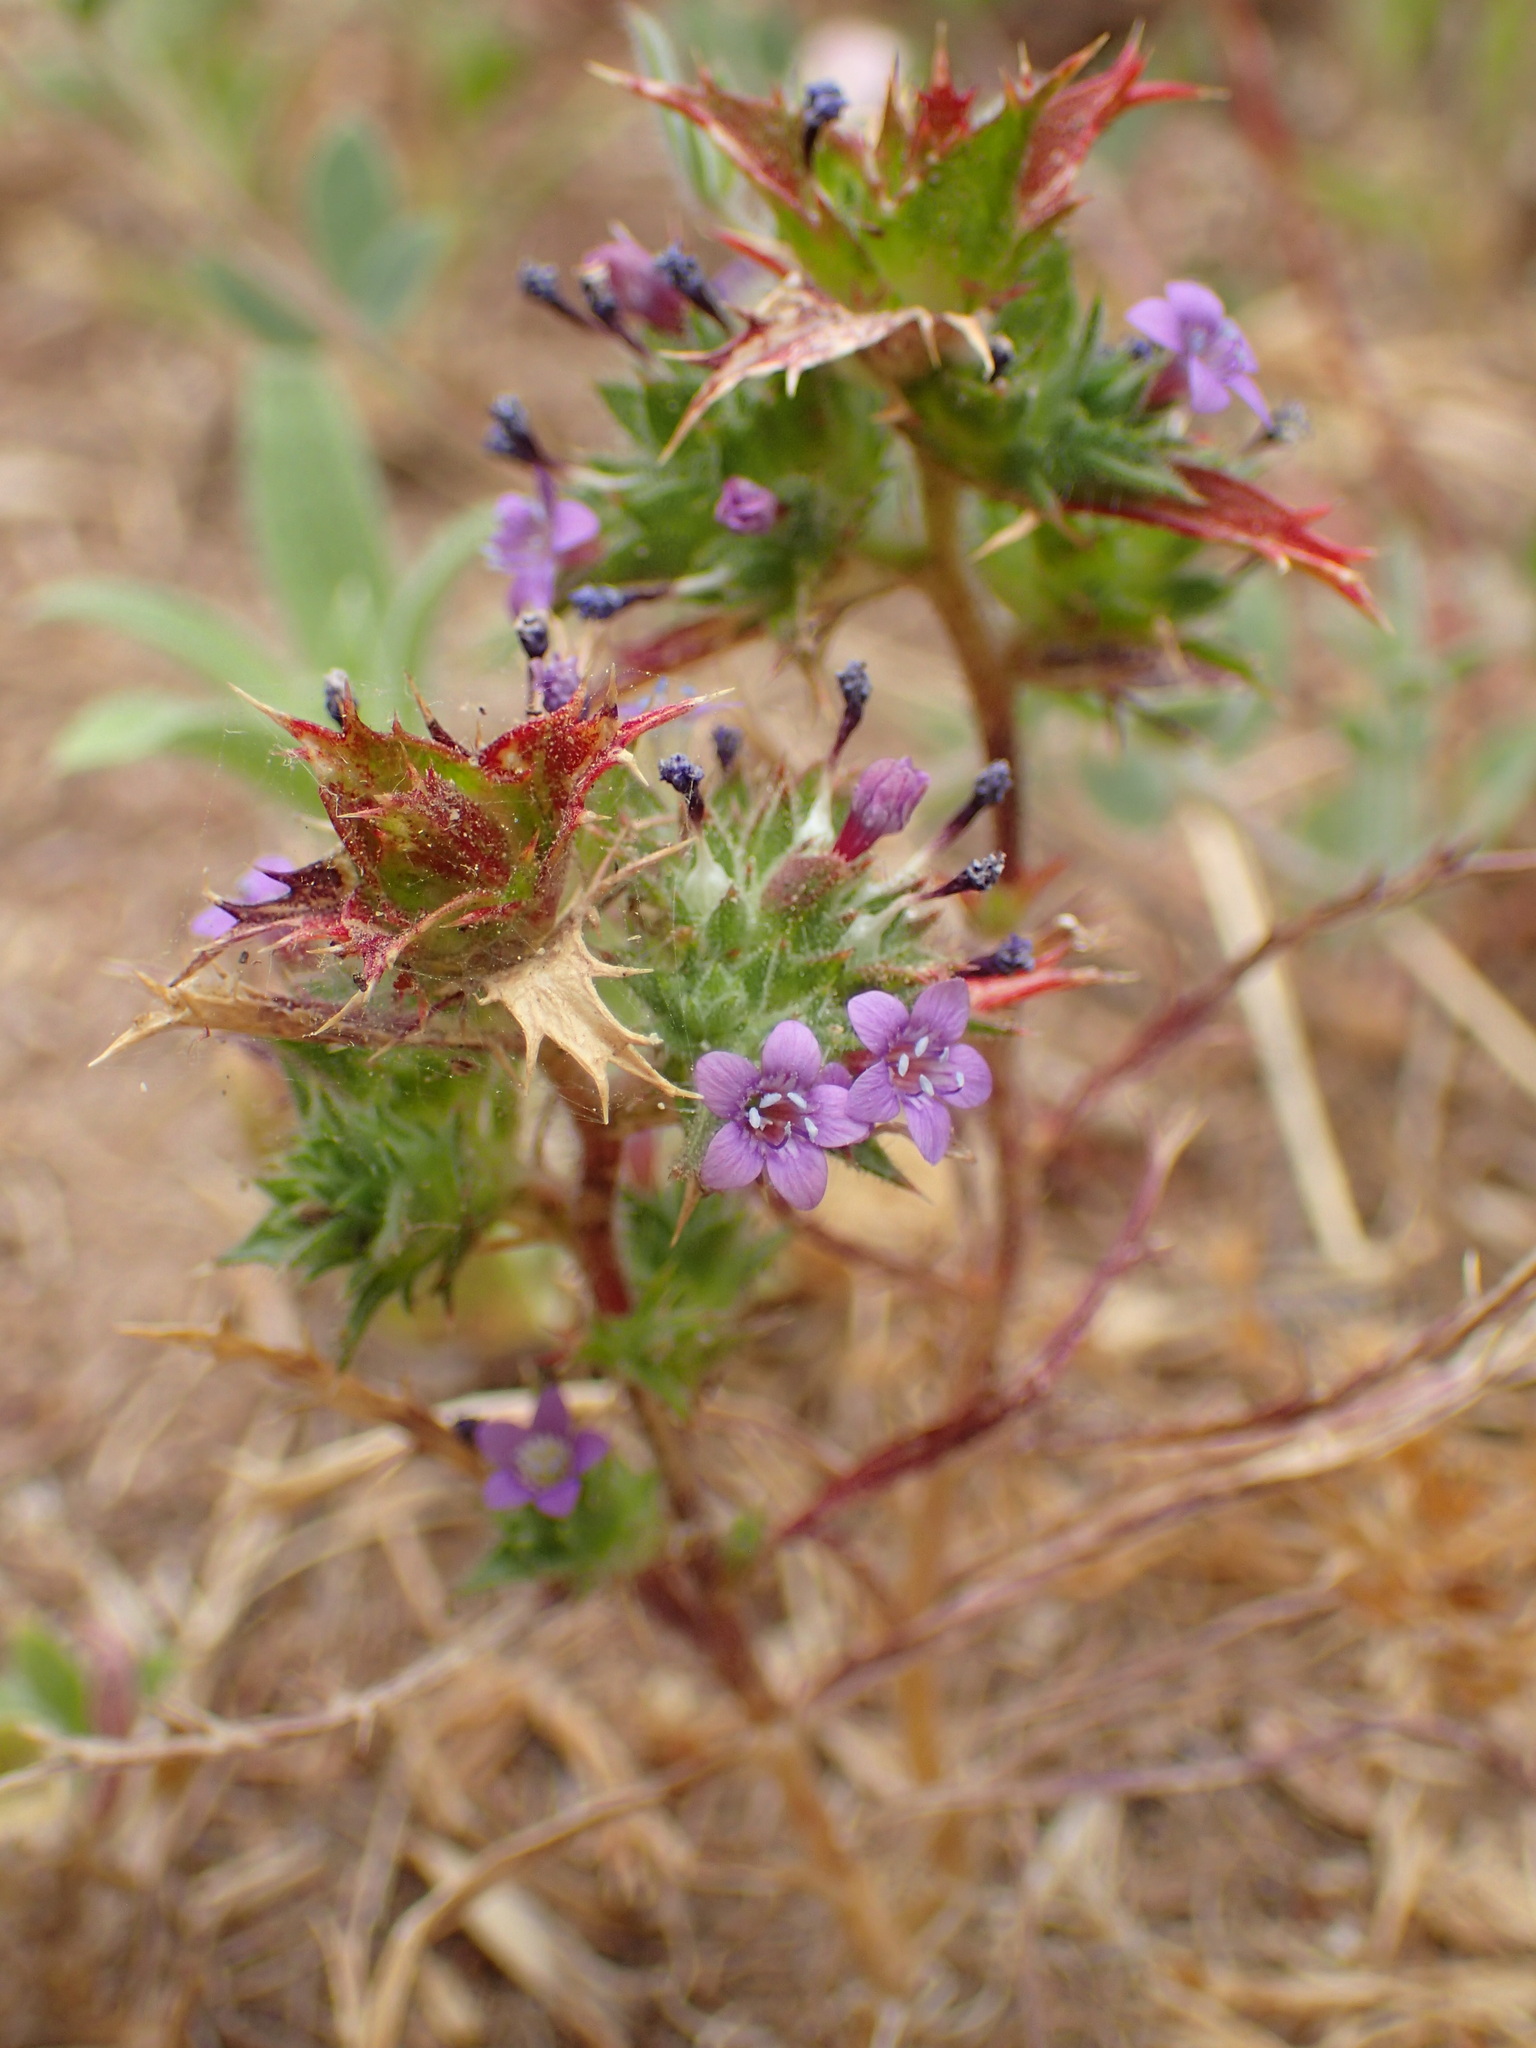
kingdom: Plantae
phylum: Tracheophyta
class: Magnoliopsida
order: Ericales
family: Polemoniaceae
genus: Navarretia
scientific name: Navarretia atractyloides
